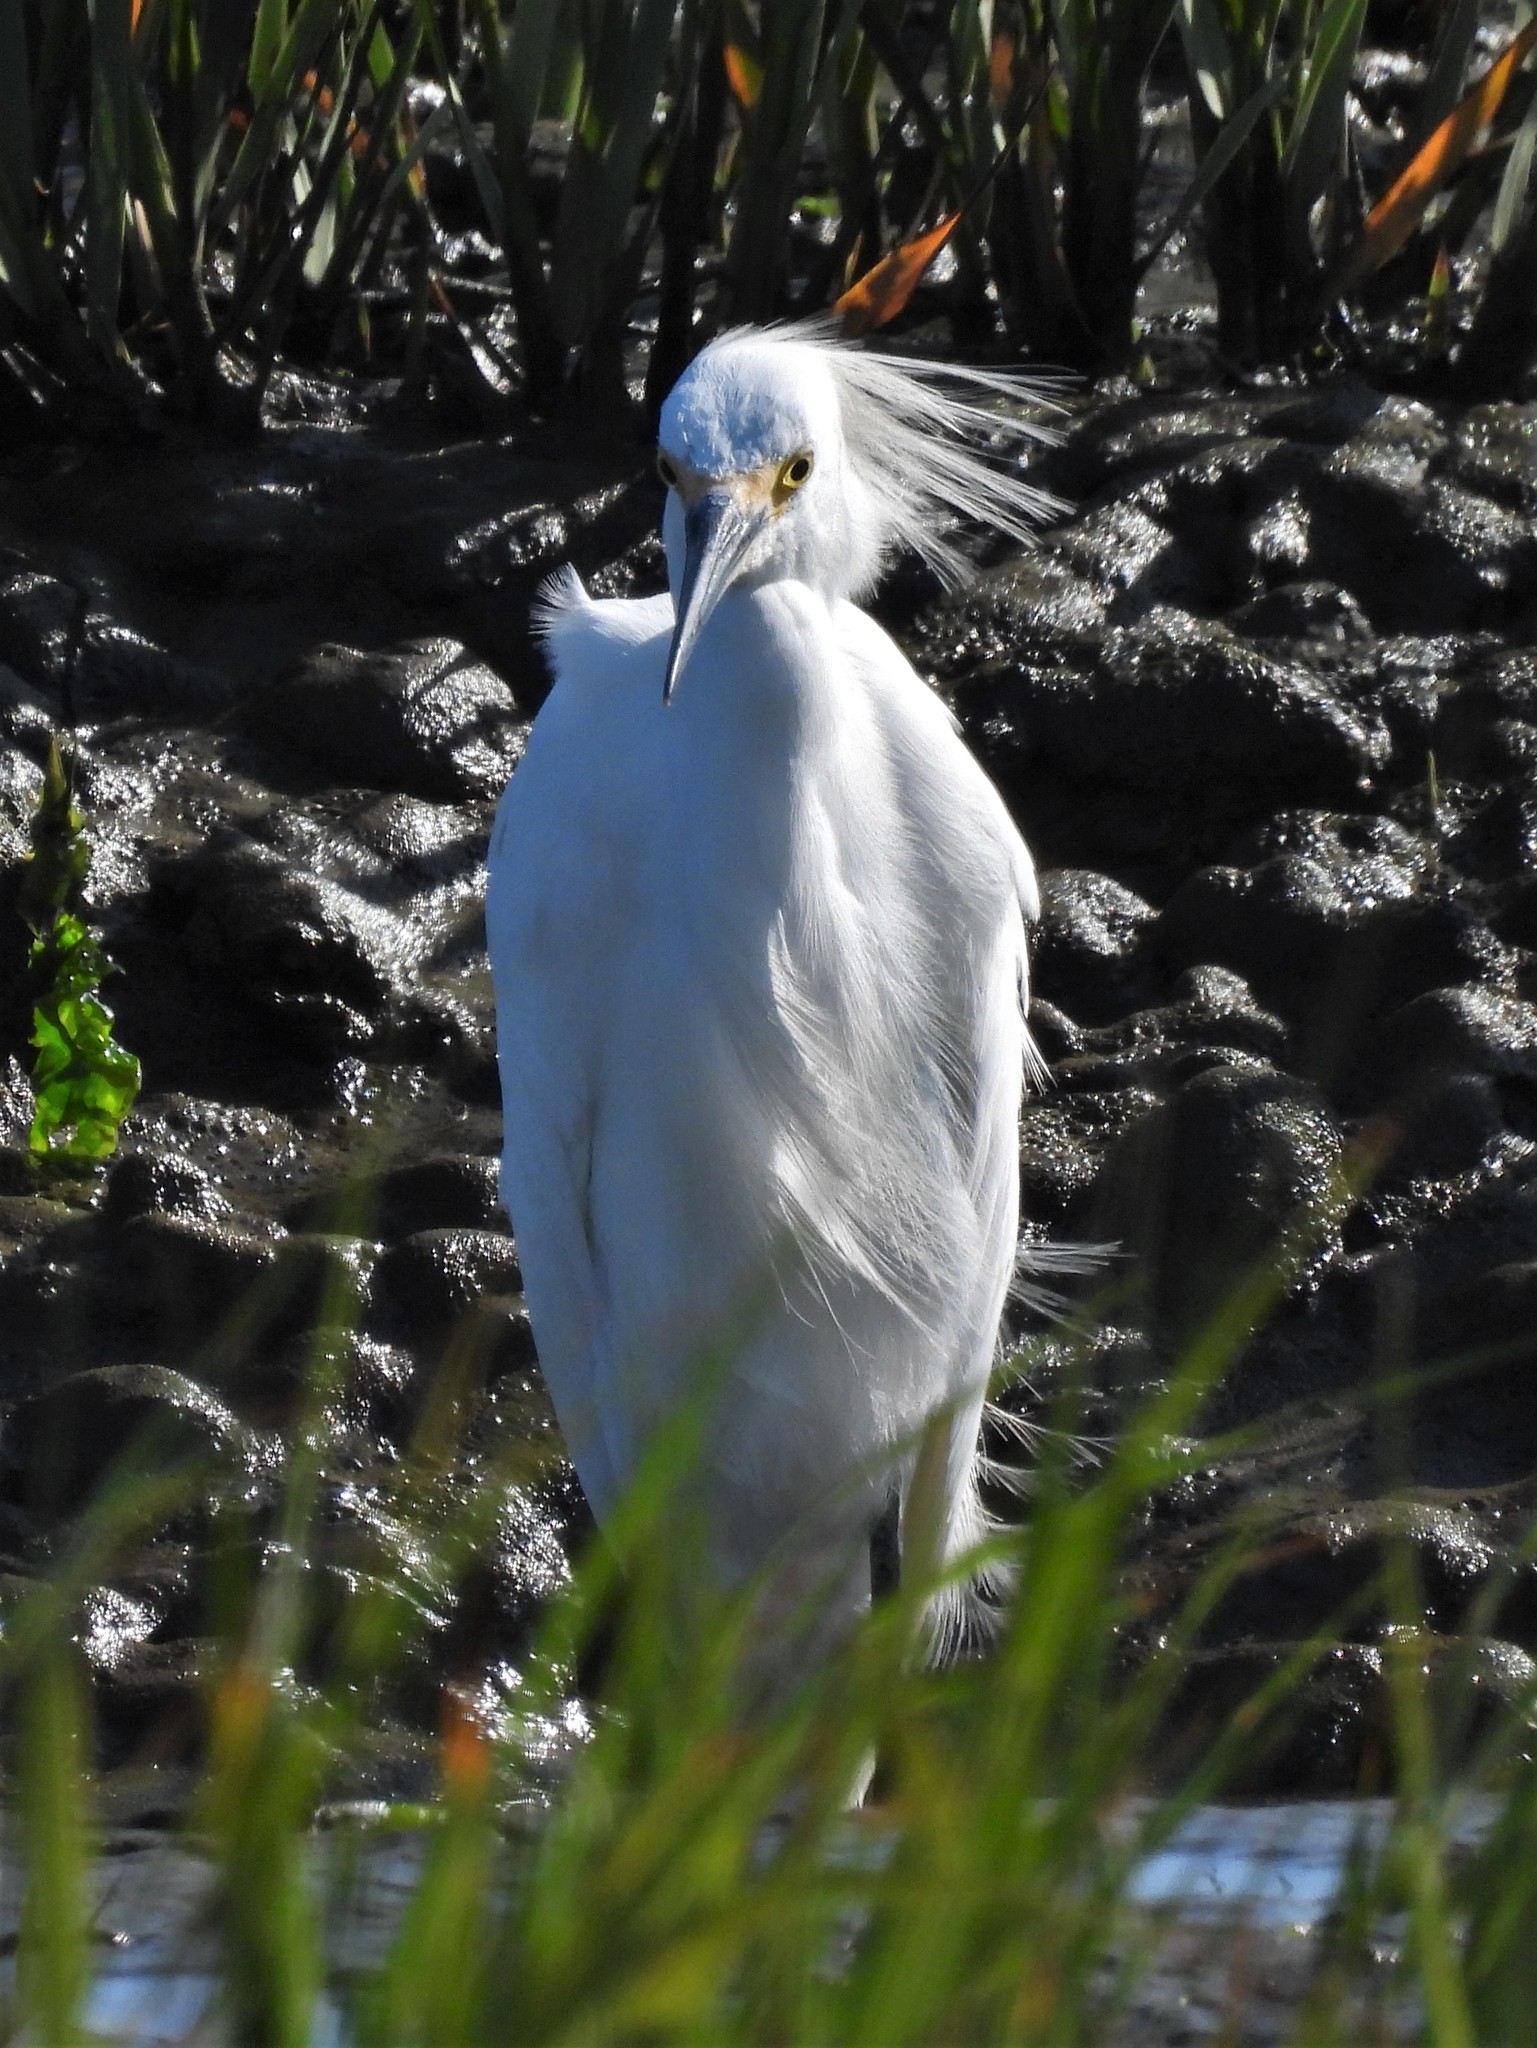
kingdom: Animalia
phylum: Chordata
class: Aves
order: Pelecaniformes
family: Ardeidae
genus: Egretta
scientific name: Egretta thula
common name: Snowy egret
